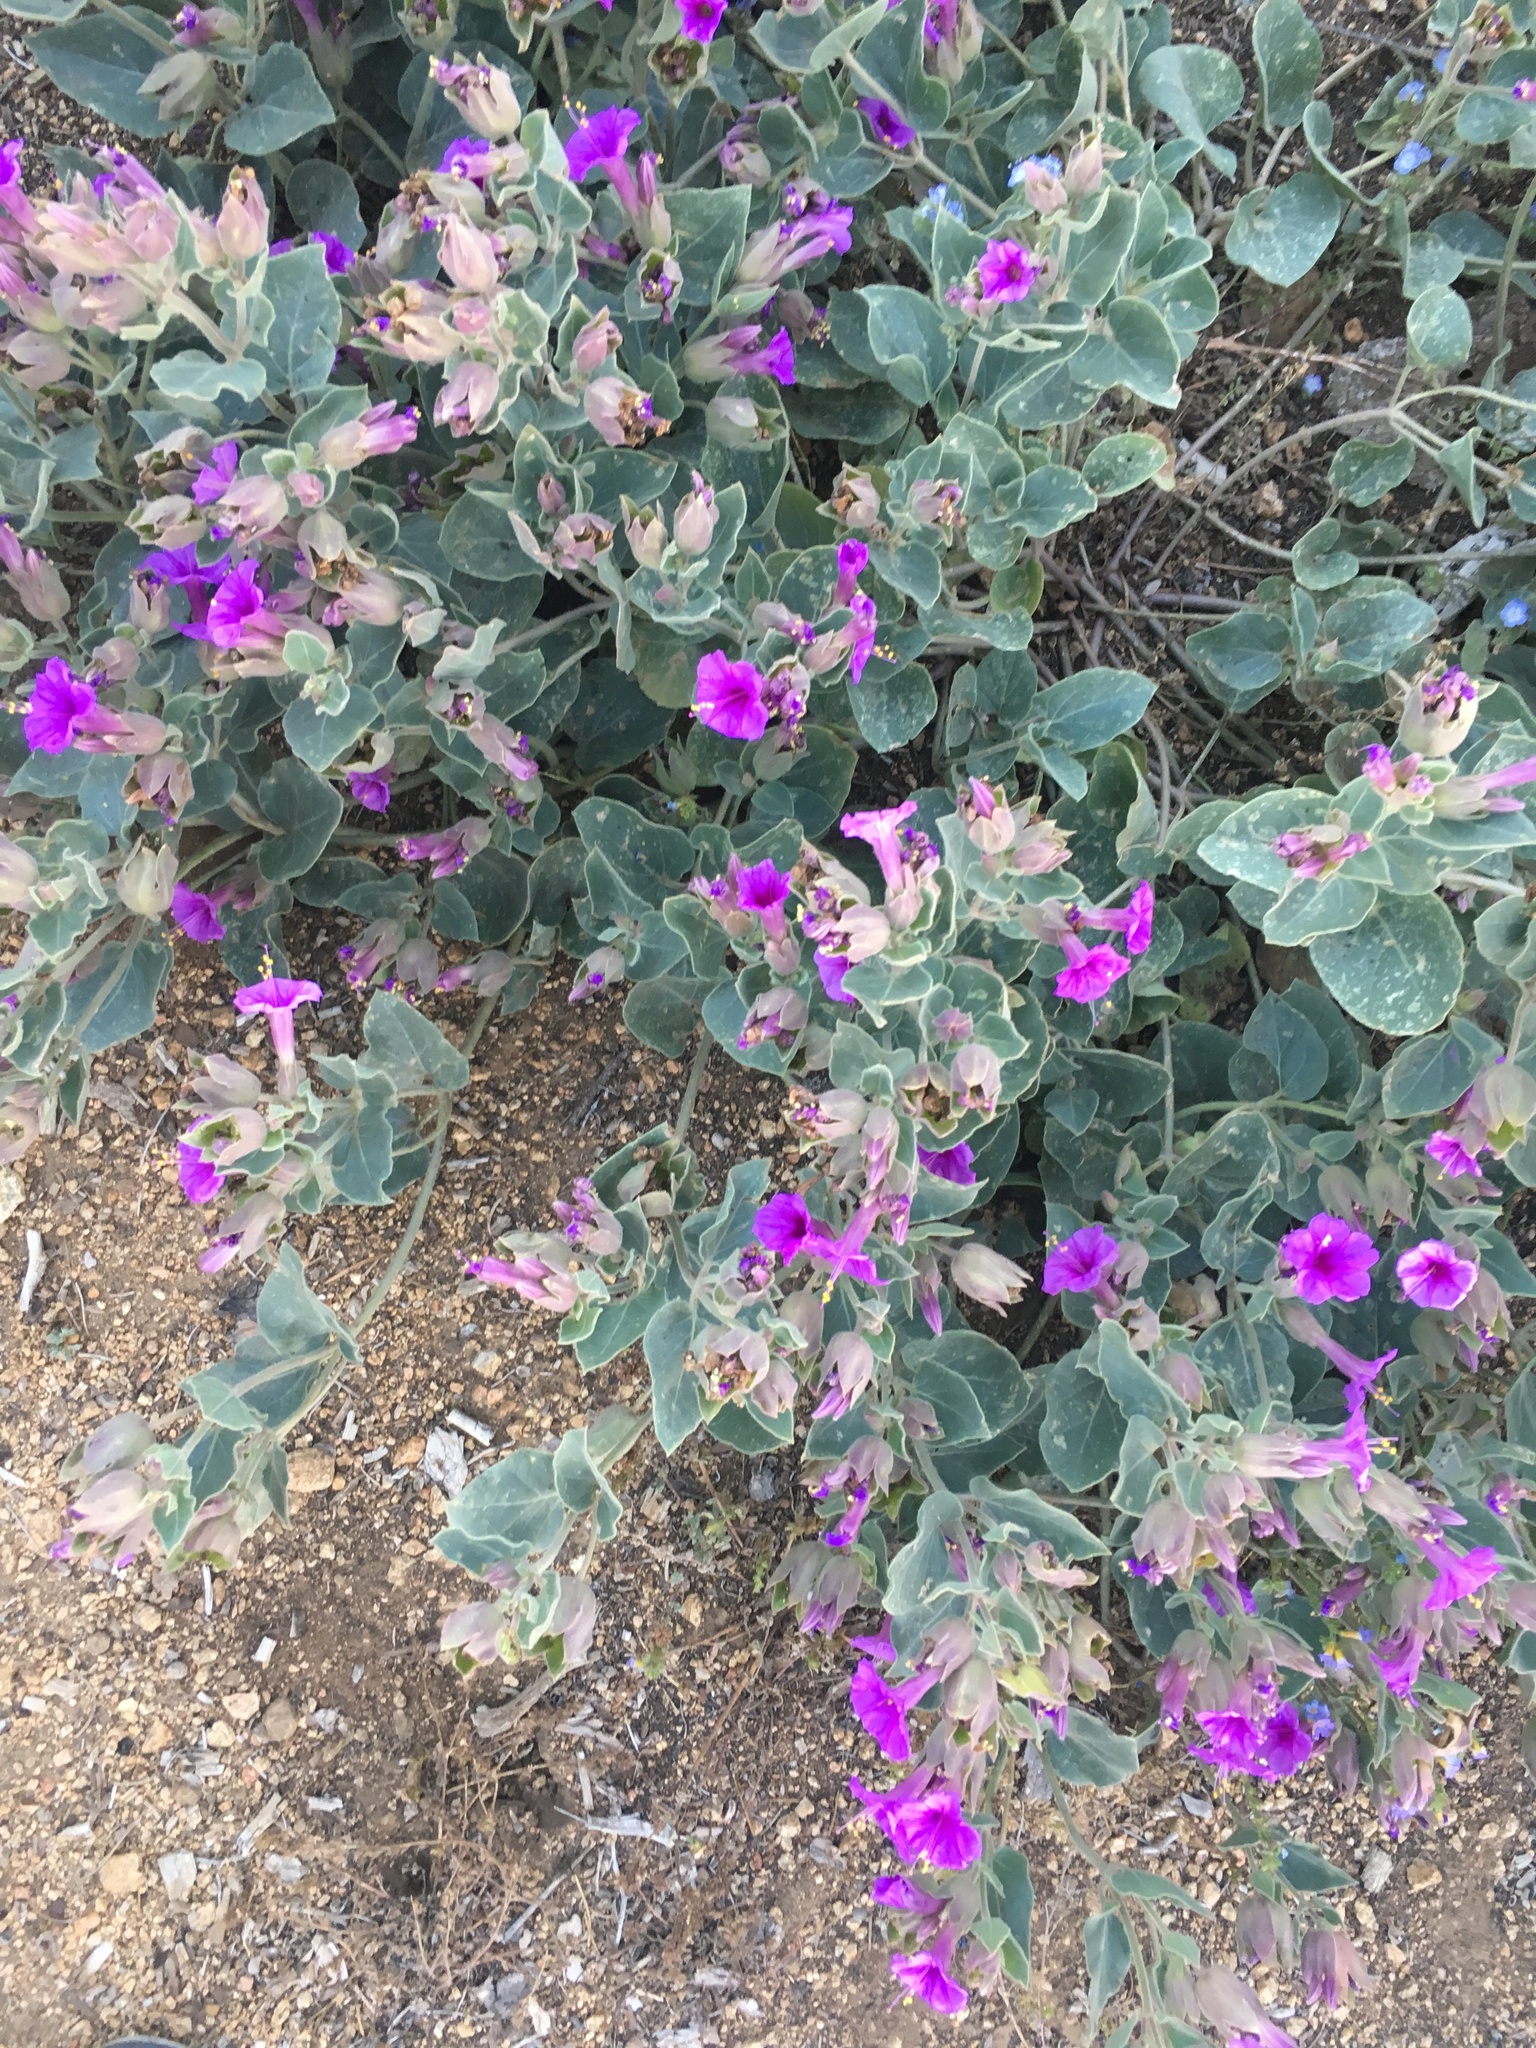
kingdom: Plantae
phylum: Tracheophyta
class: Magnoliopsida
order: Caryophyllales
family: Nyctaginaceae
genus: Mirabilis
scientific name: Mirabilis multiflora
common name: Froebel's four-o'clock
